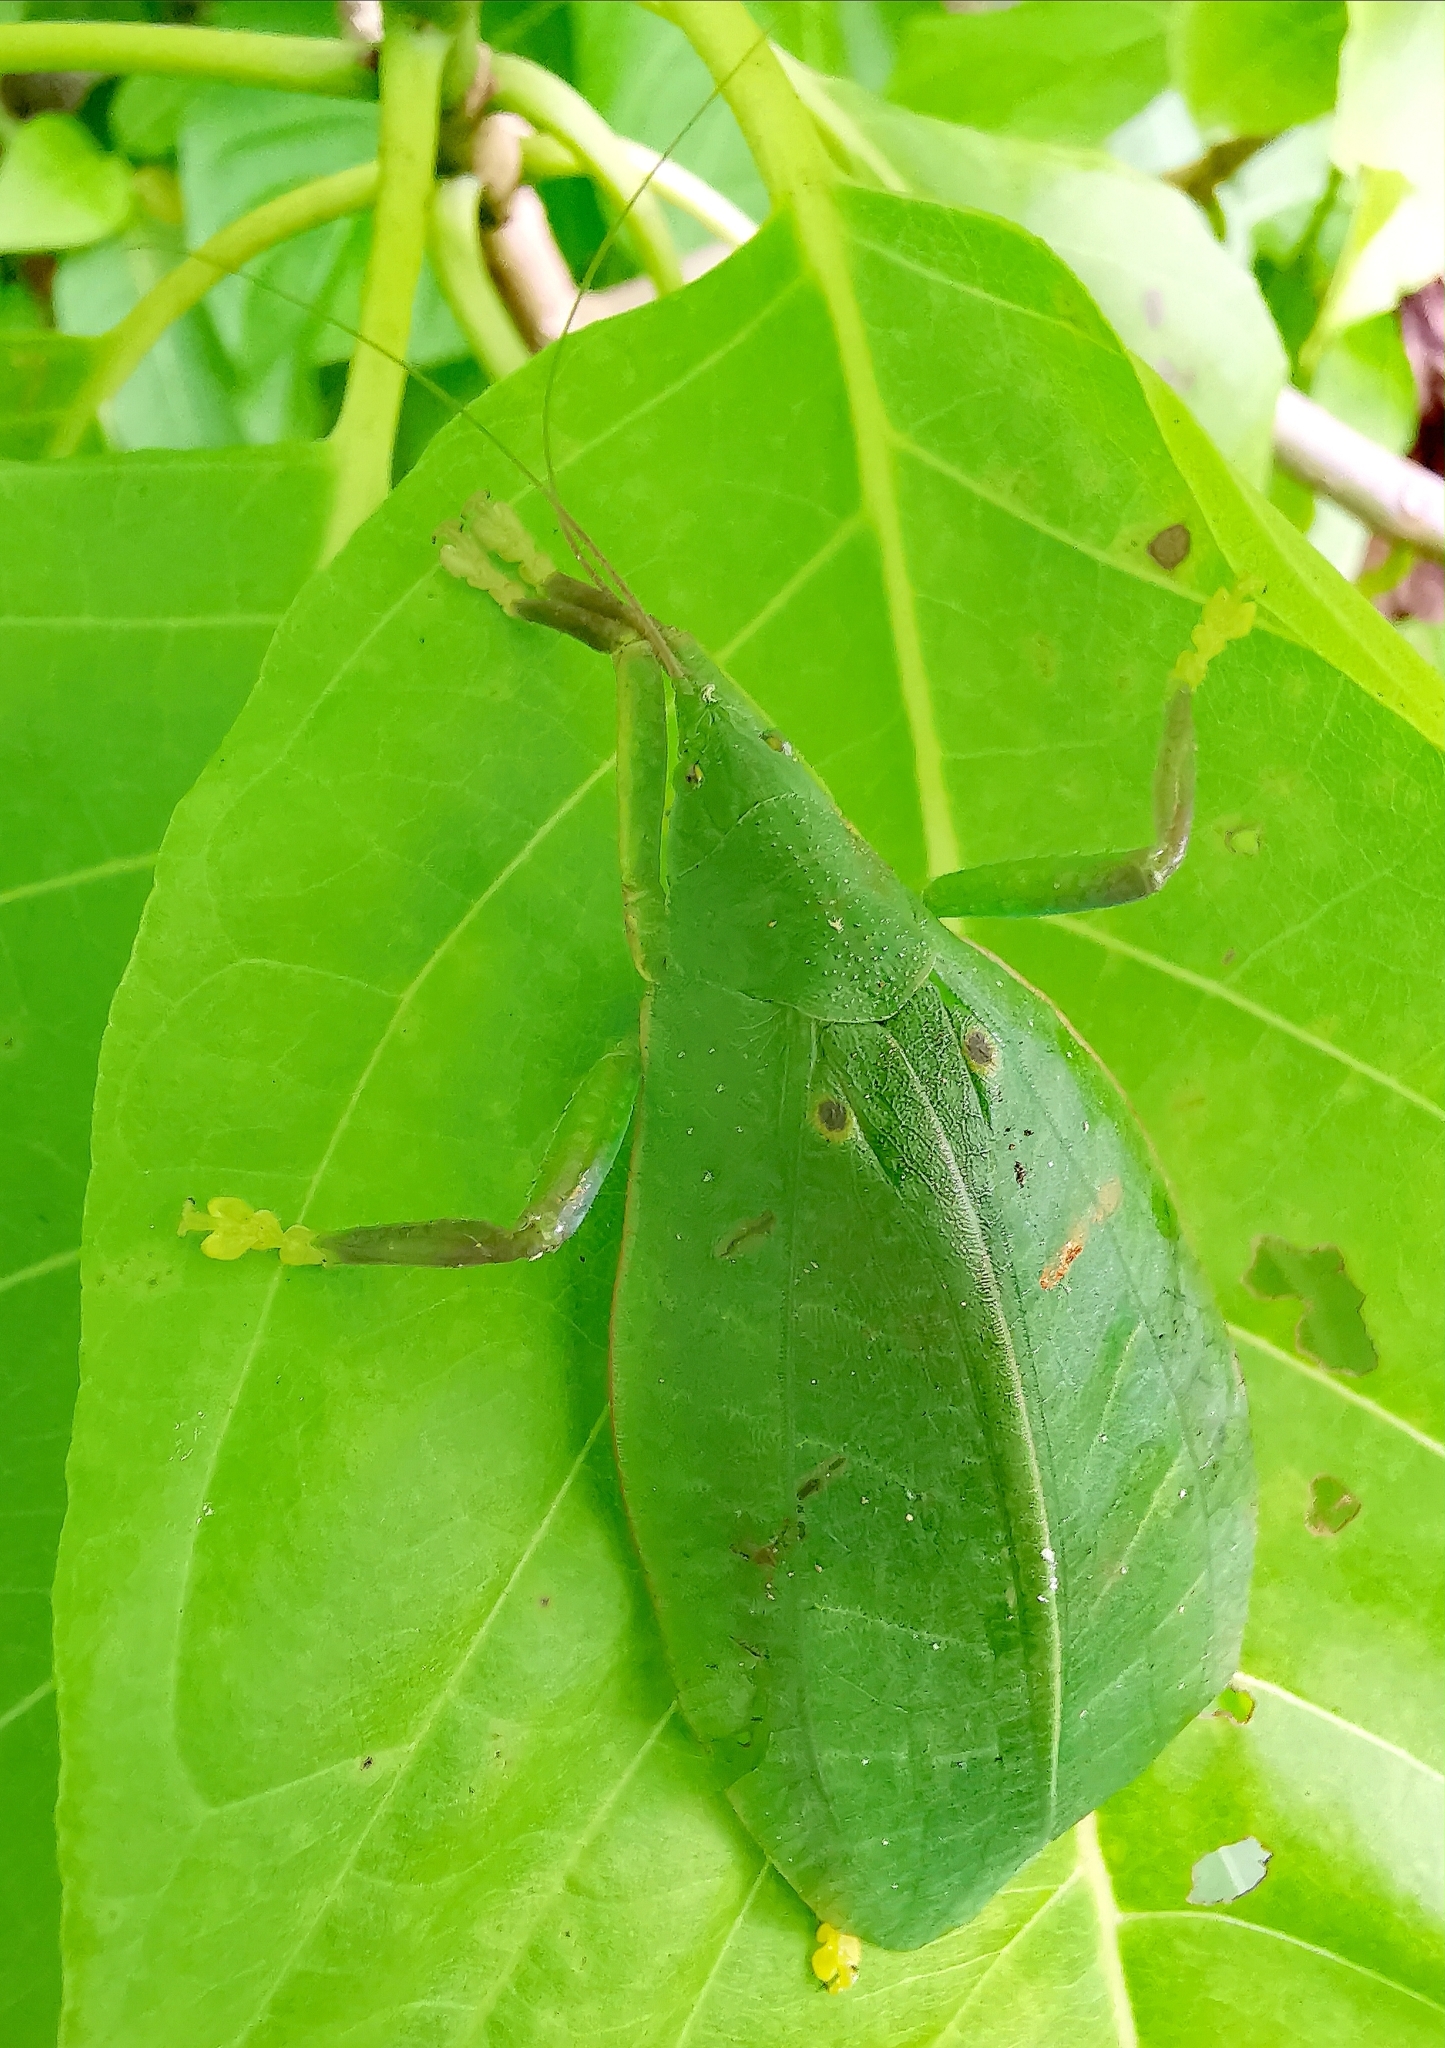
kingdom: Animalia
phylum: Arthropoda
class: Insecta
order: Orthoptera
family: Tettigoniidae
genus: Phyllomimus
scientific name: Phyllomimus elliptifolius
